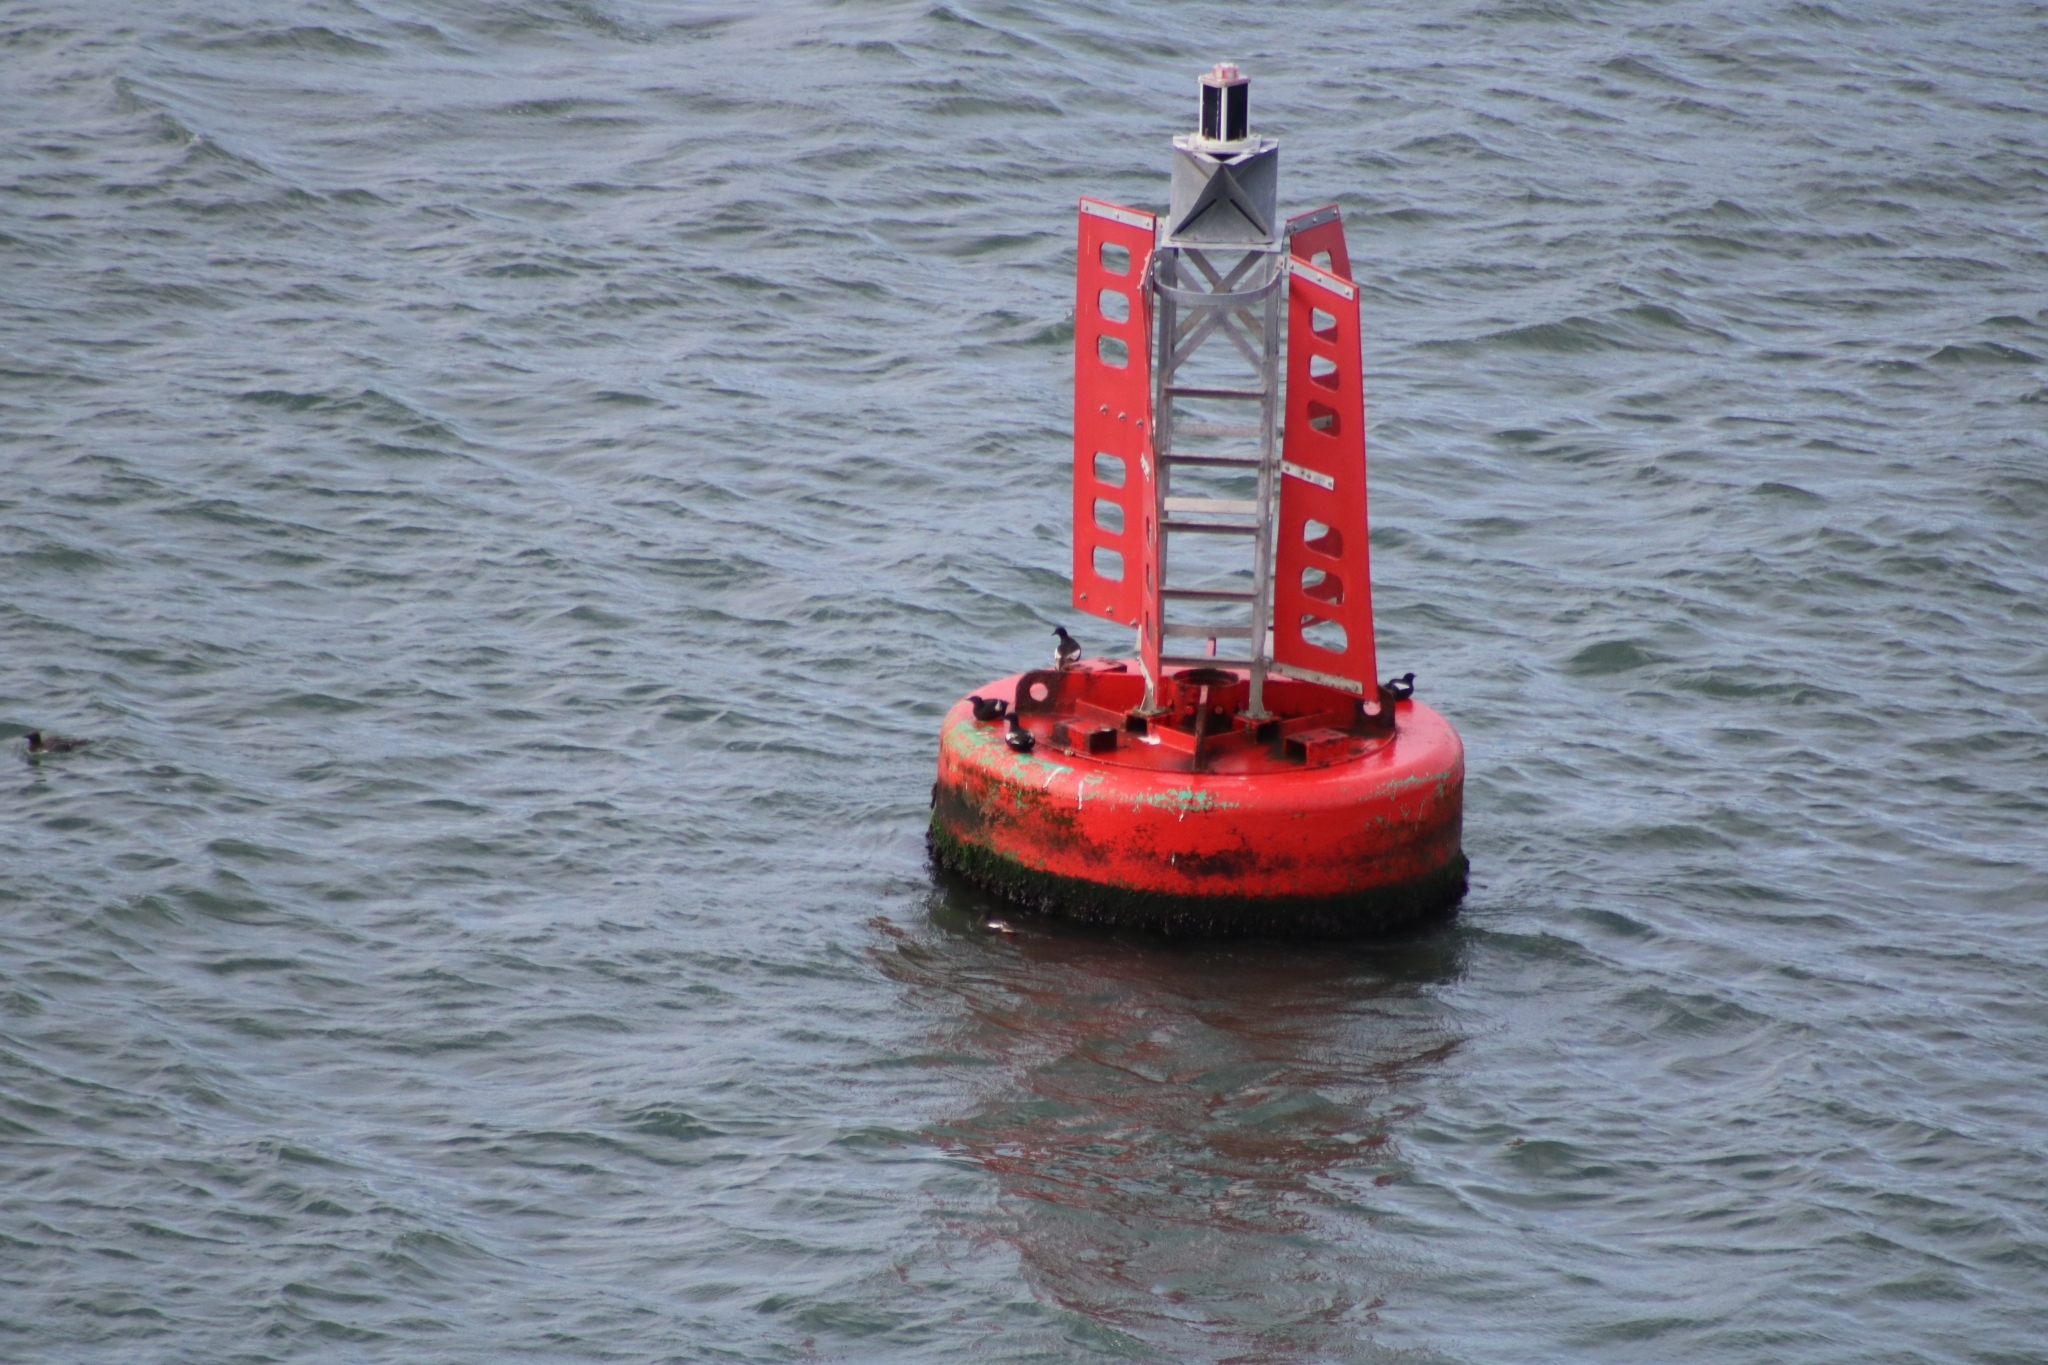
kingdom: Animalia
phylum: Chordata
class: Aves
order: Charadriiformes
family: Alcidae
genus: Cepphus
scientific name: Cepphus grylle
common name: Black guillemot
